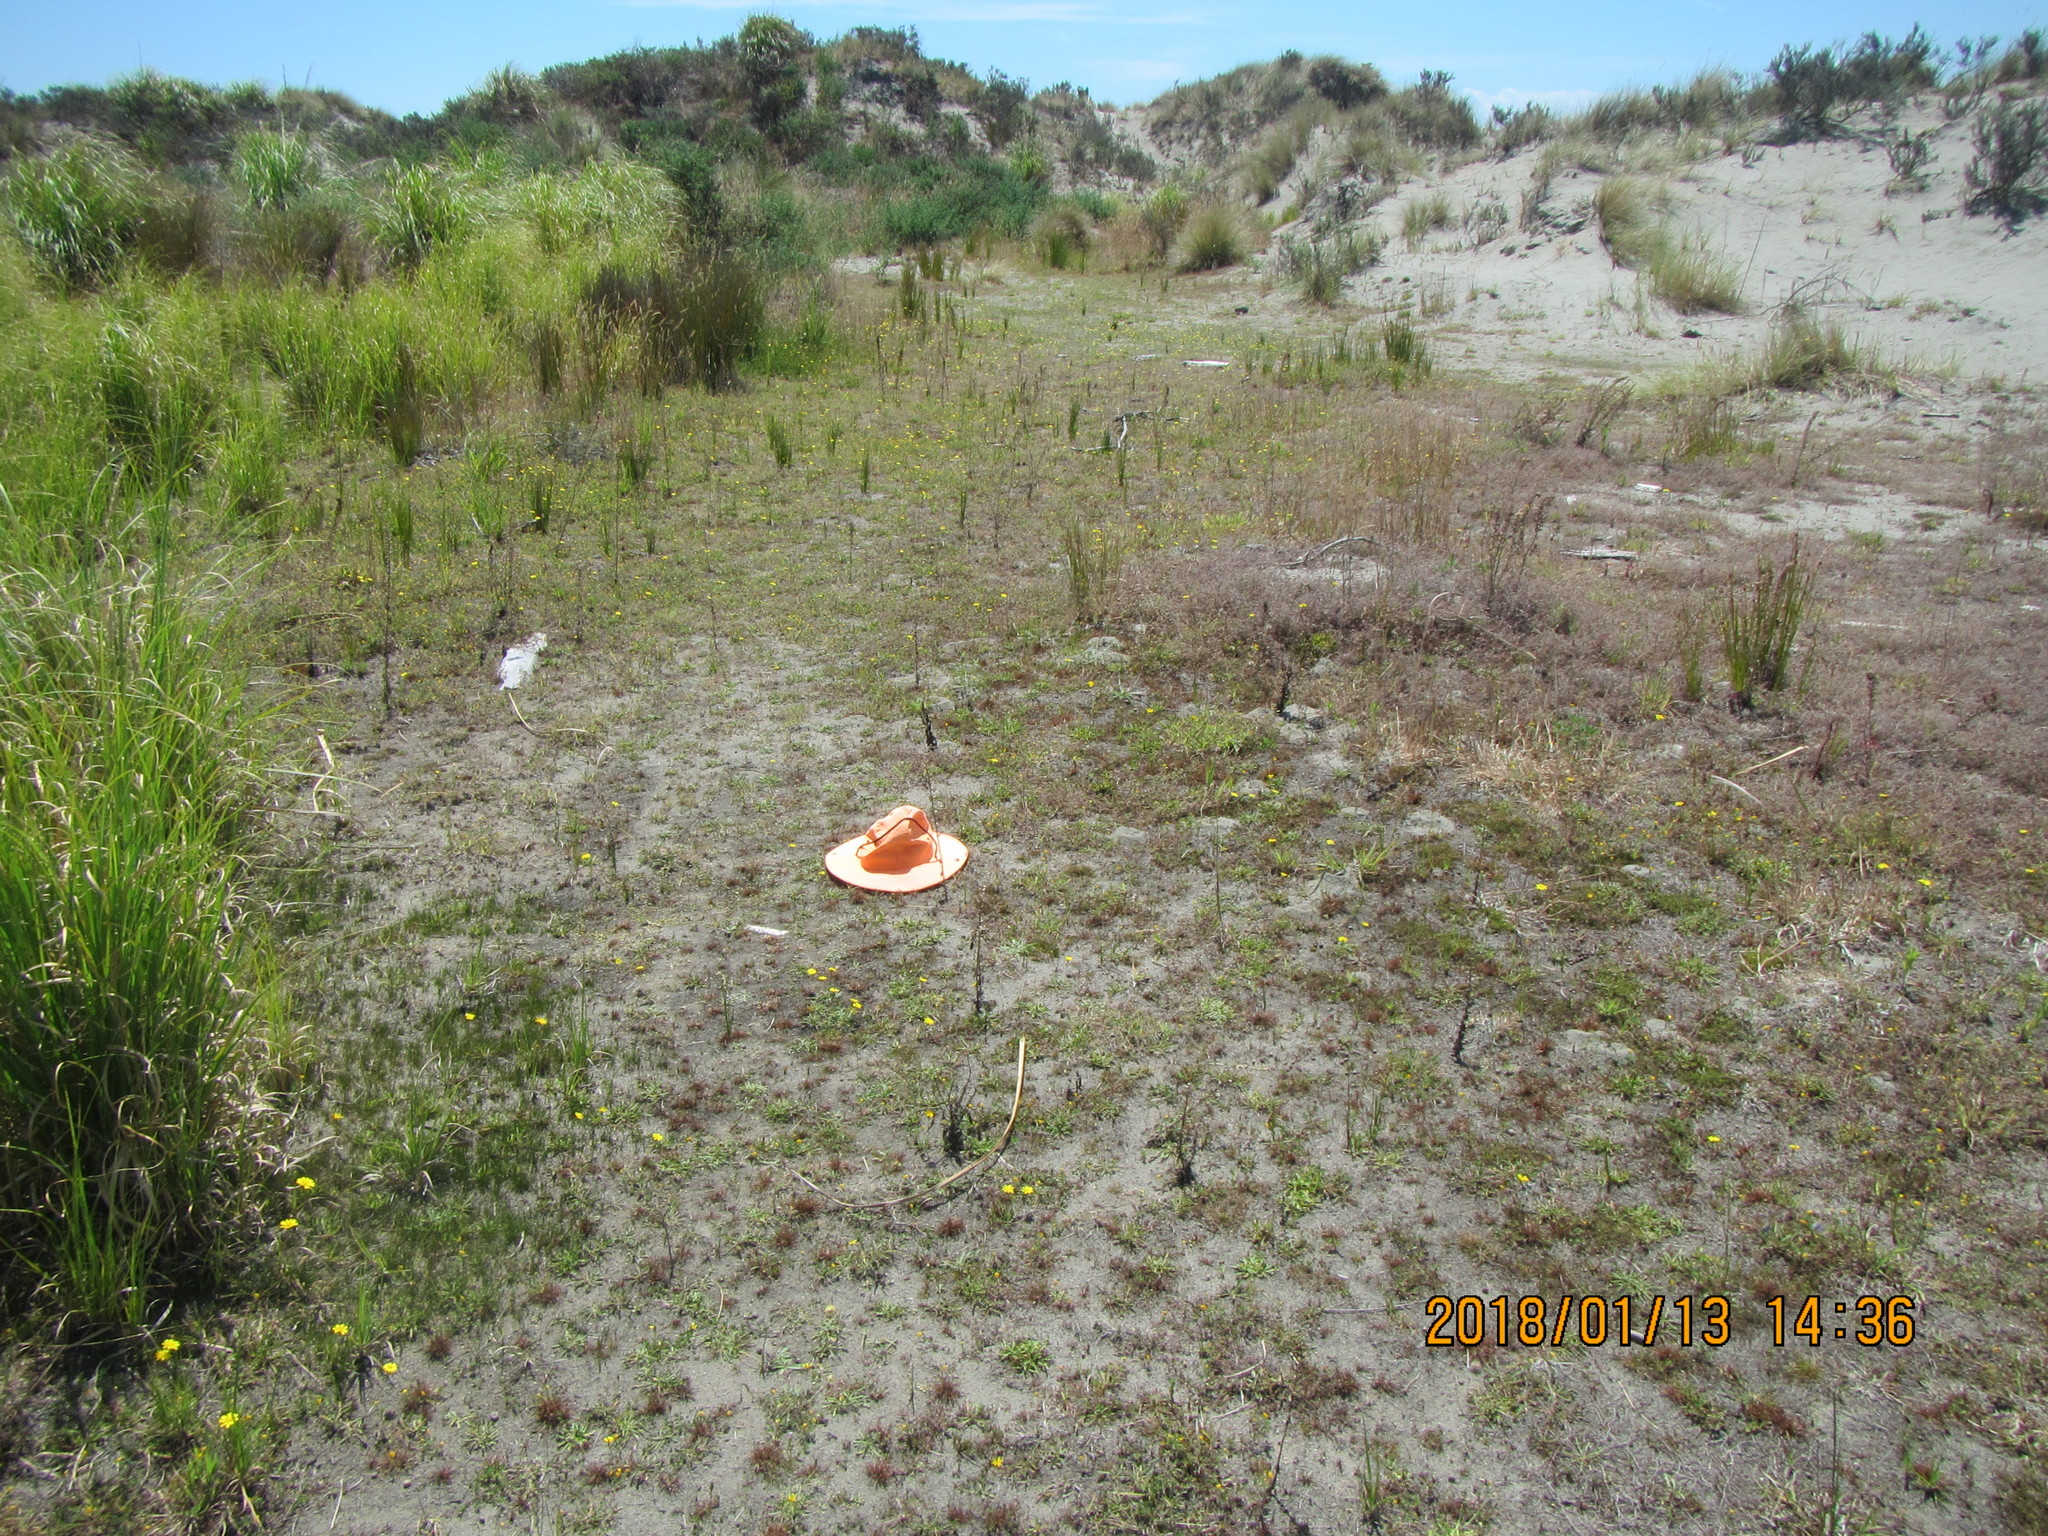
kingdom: Plantae
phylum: Tracheophyta
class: Magnoliopsida
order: Asterales
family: Campanulaceae
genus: Lobelia
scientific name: Lobelia anceps
